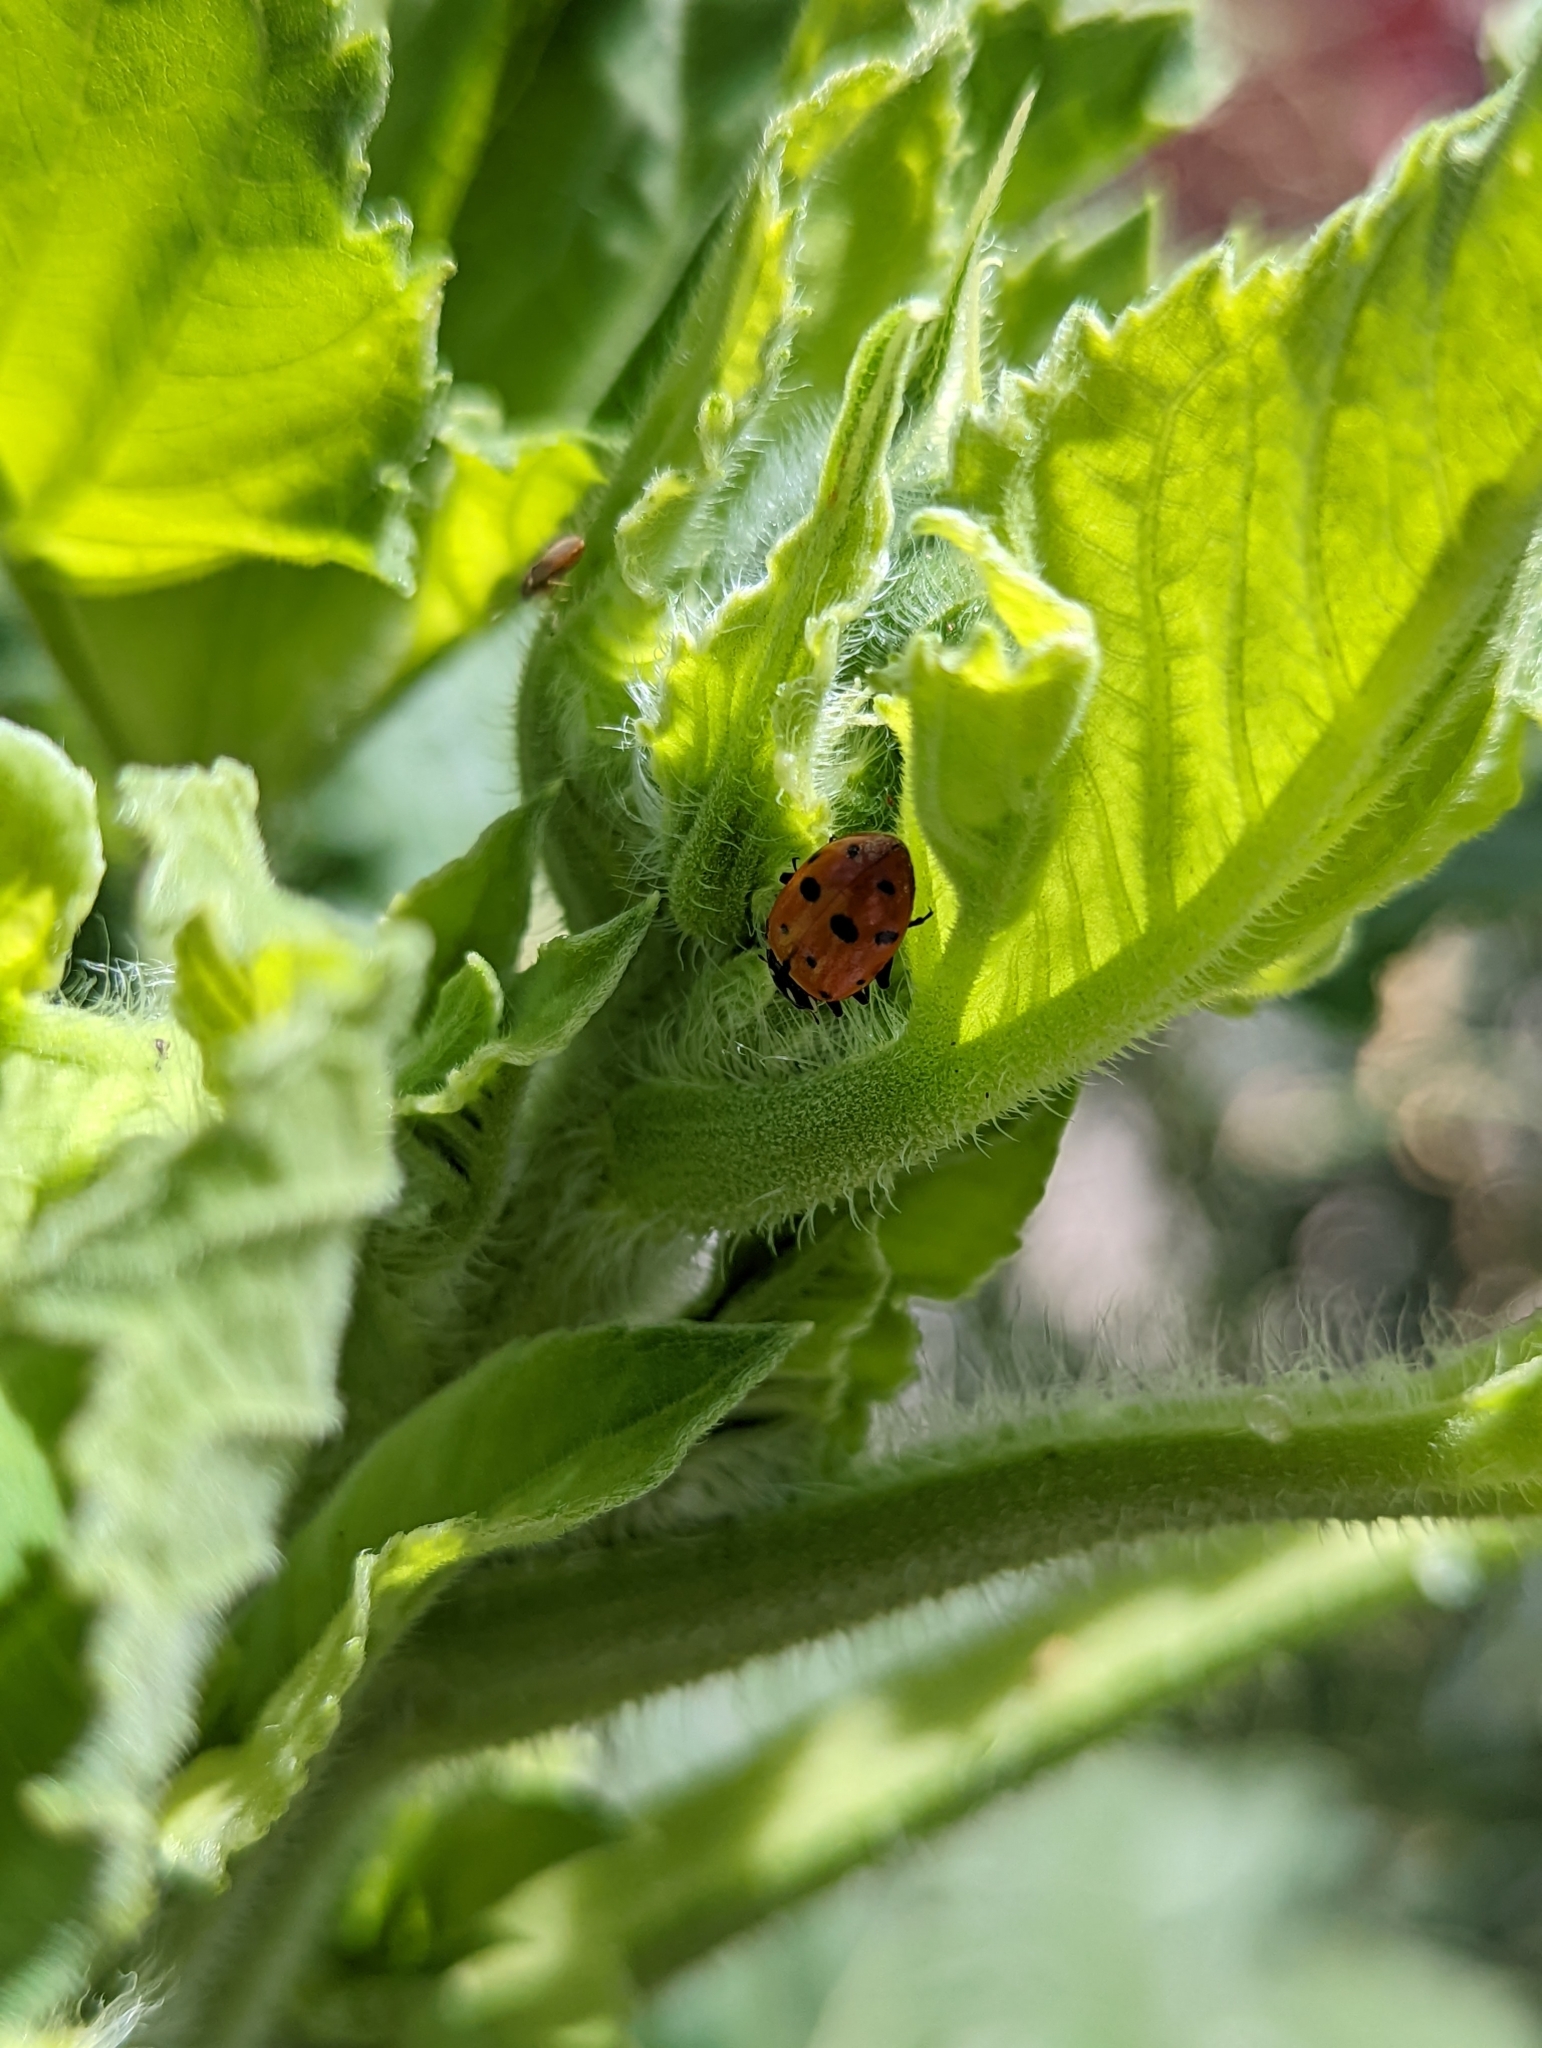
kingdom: Animalia
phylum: Arthropoda
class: Insecta
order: Coleoptera
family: Coccinellidae
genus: Hippodamia
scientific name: Hippodamia convergens
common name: Convergent lady beetle
